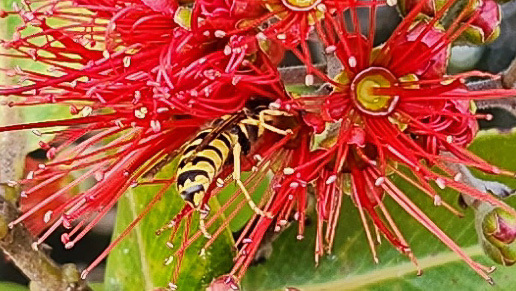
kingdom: Animalia
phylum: Arthropoda
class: Insecta
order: Hymenoptera
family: Vespidae
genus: Vespula
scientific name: Vespula pensylvanica
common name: Western yellowjacket
